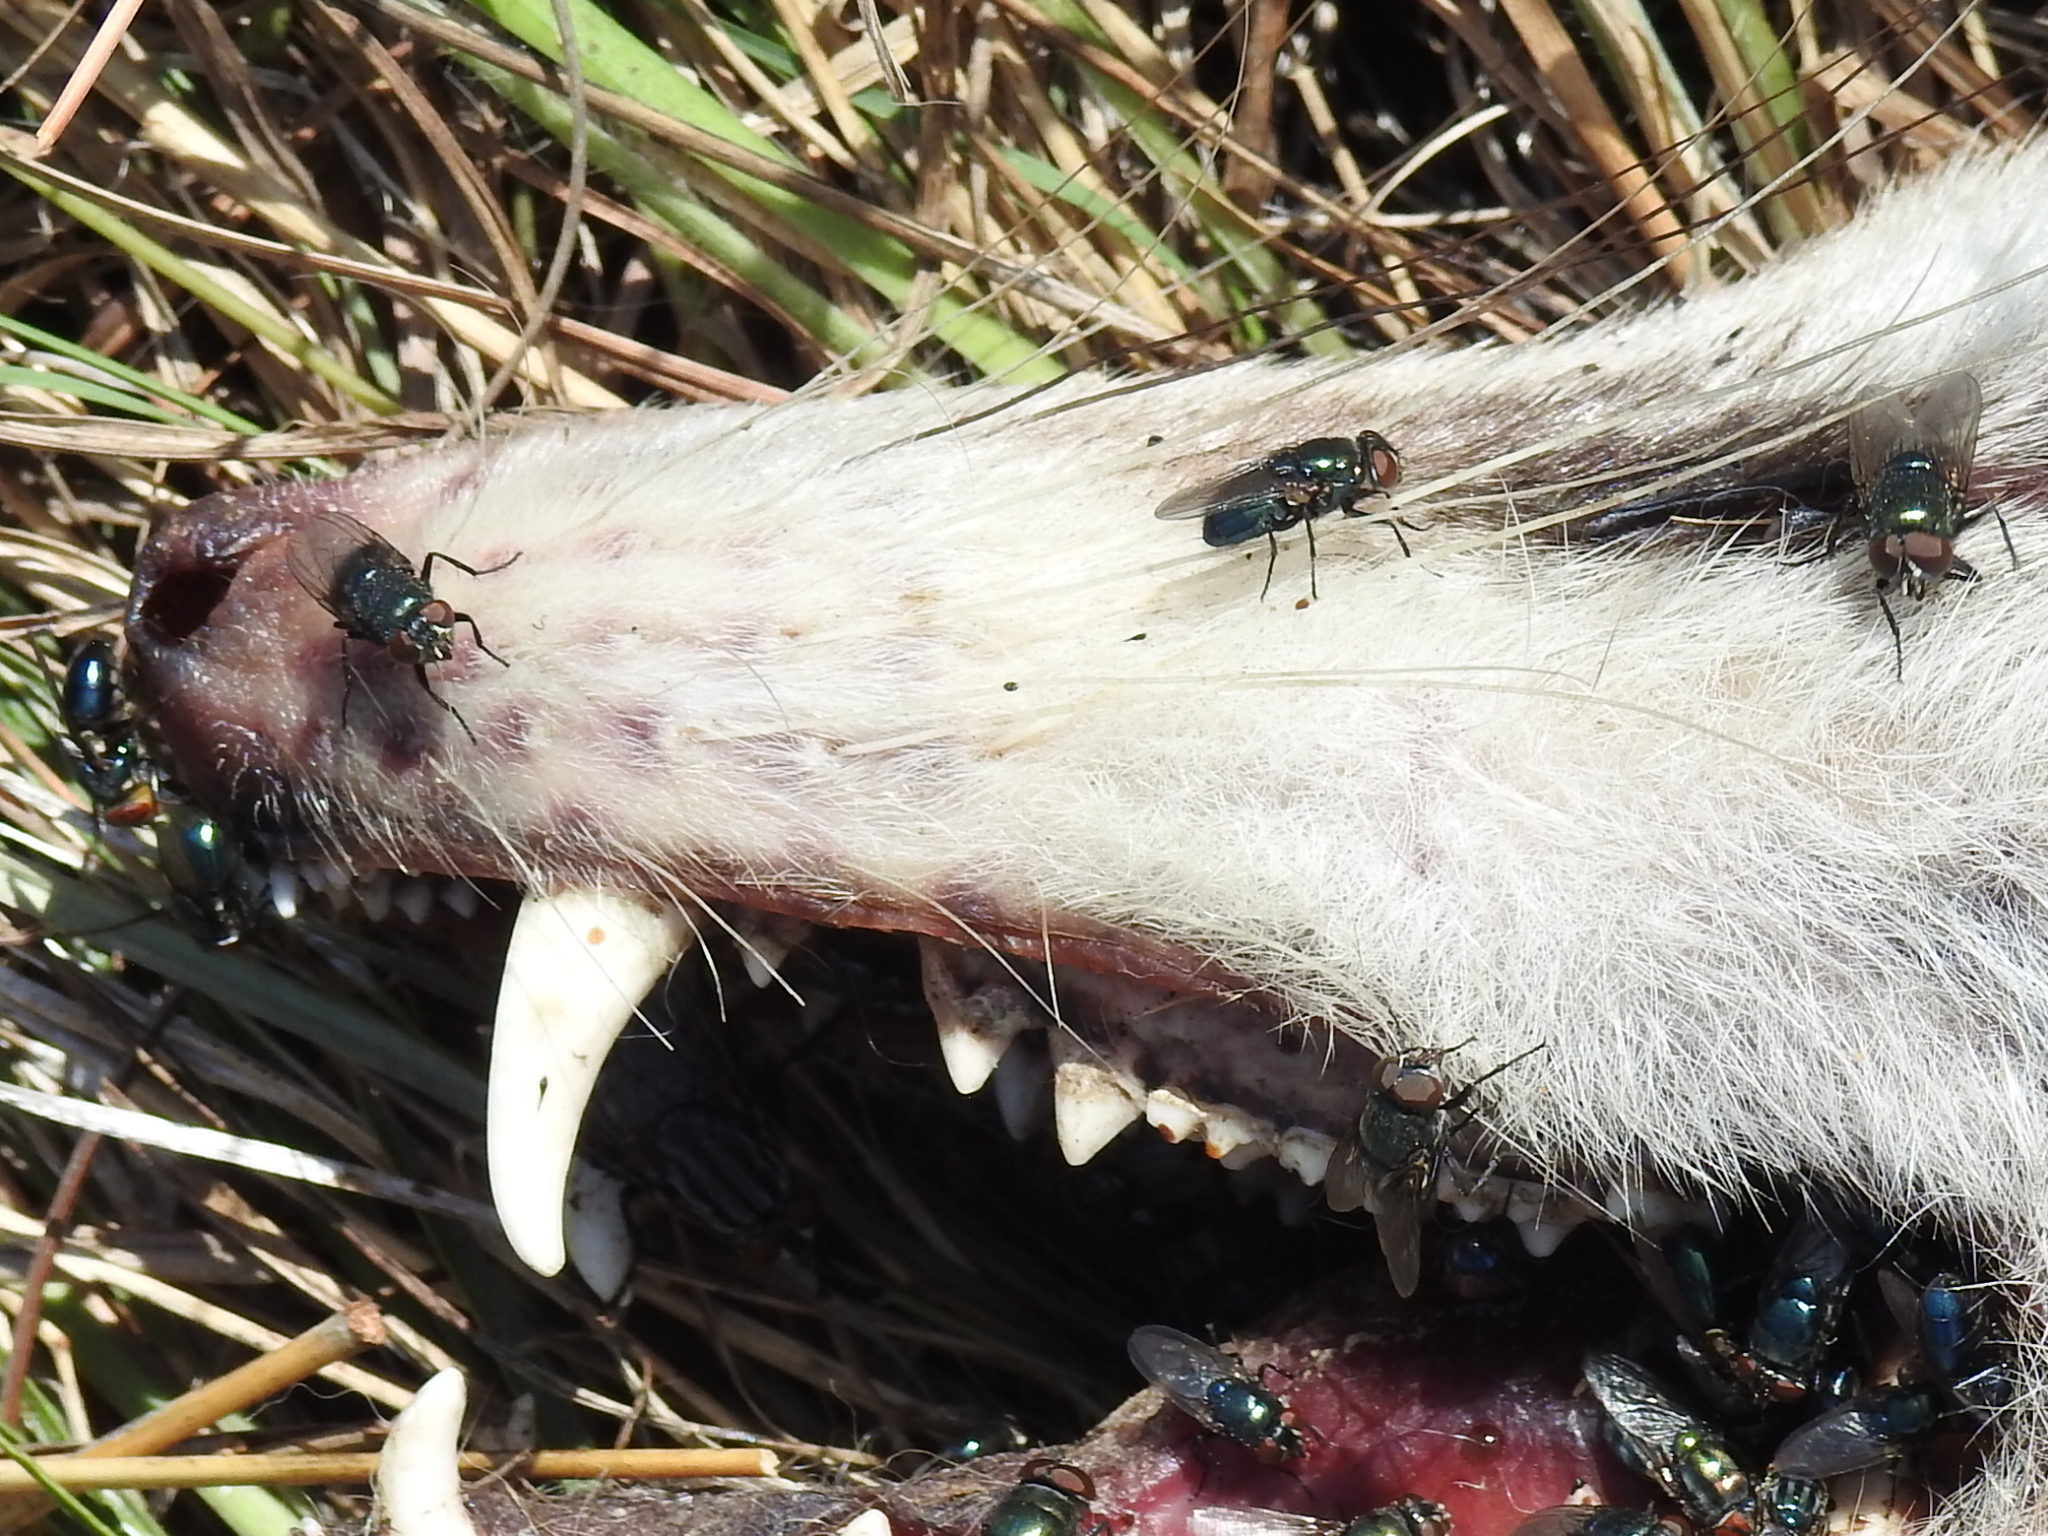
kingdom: Animalia
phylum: Chordata
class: Mammalia
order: Didelphimorphia
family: Didelphidae
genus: Didelphis
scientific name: Didelphis virginiana
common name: Virginia opossum
